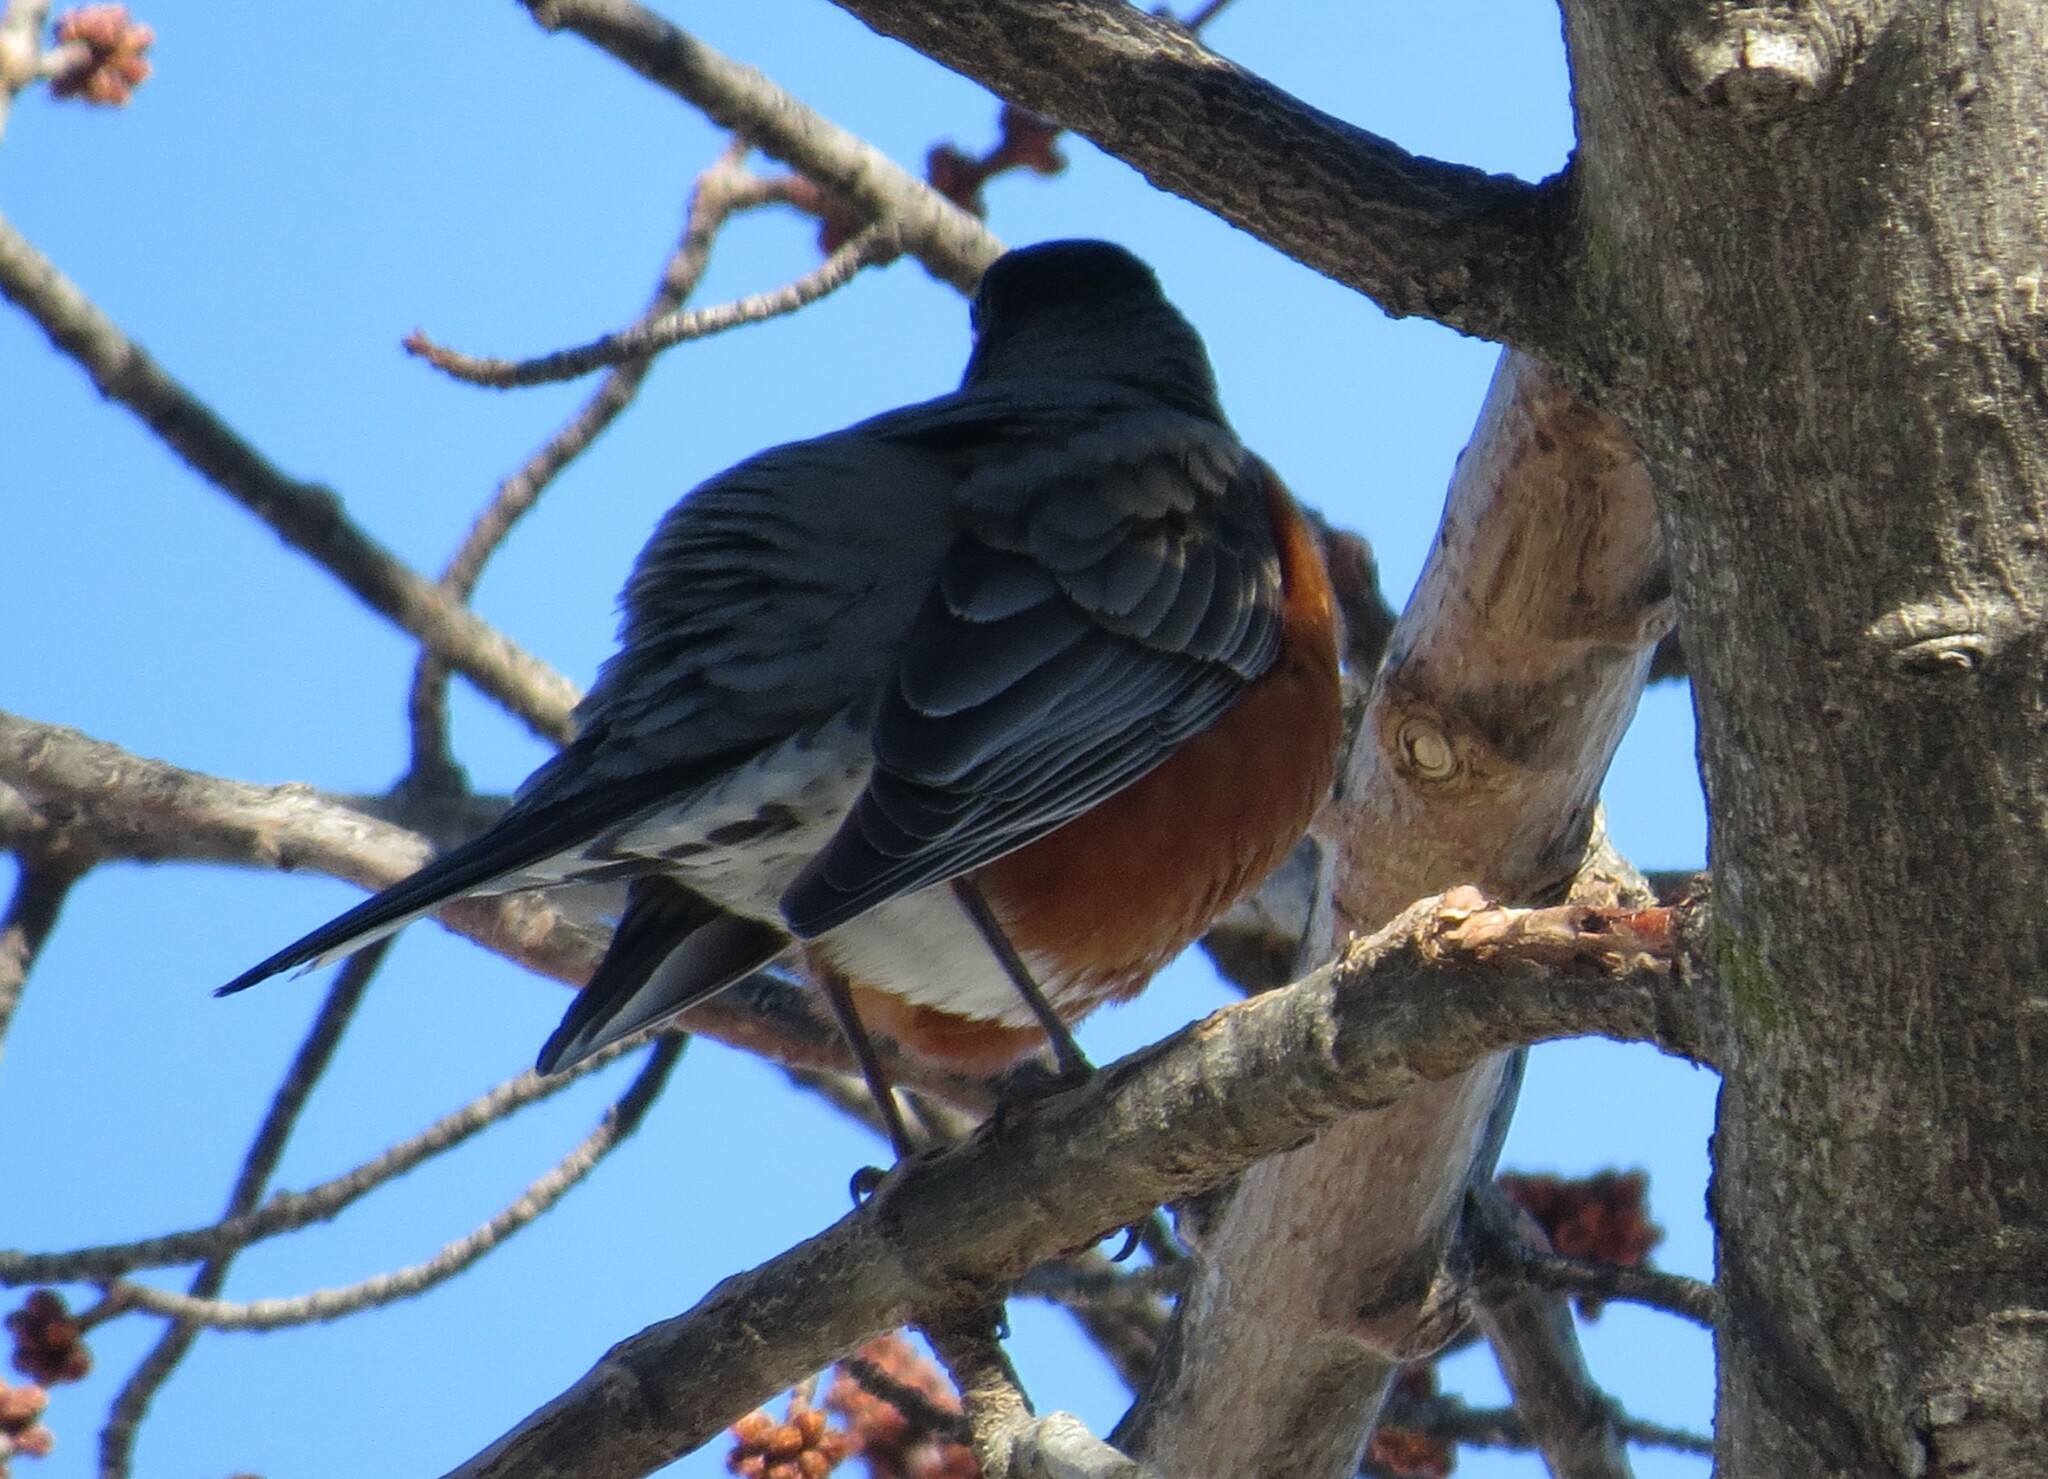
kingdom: Animalia
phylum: Chordata
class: Aves
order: Passeriformes
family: Turdidae
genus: Turdus
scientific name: Turdus migratorius
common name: American robin
